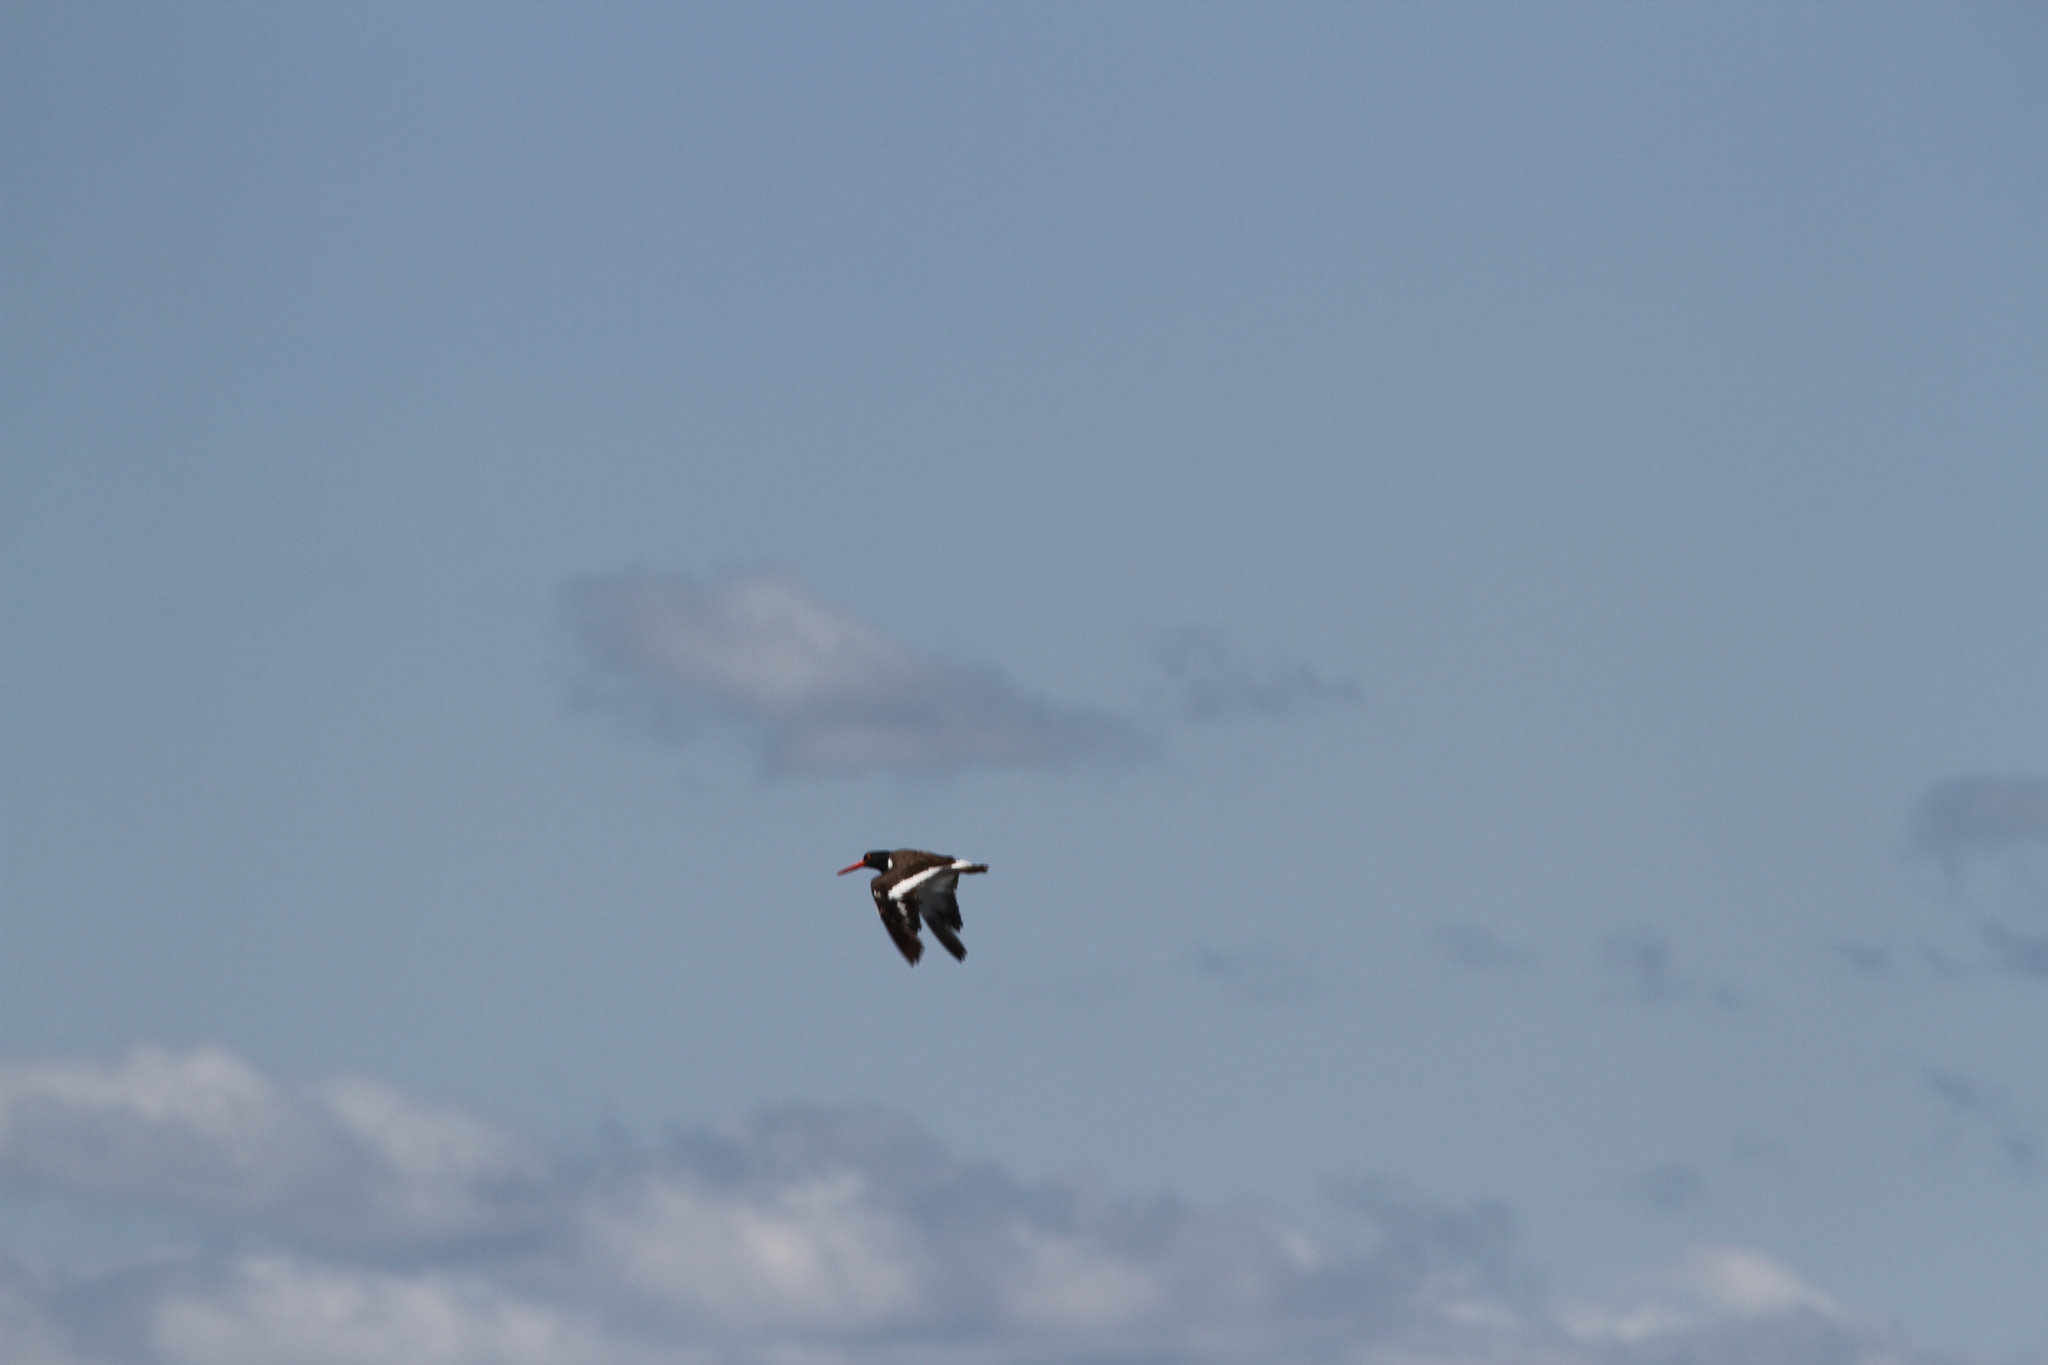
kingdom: Animalia
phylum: Chordata
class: Aves
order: Charadriiformes
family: Haematopodidae
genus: Haematopus
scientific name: Haematopus palliatus
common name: American oystercatcher
